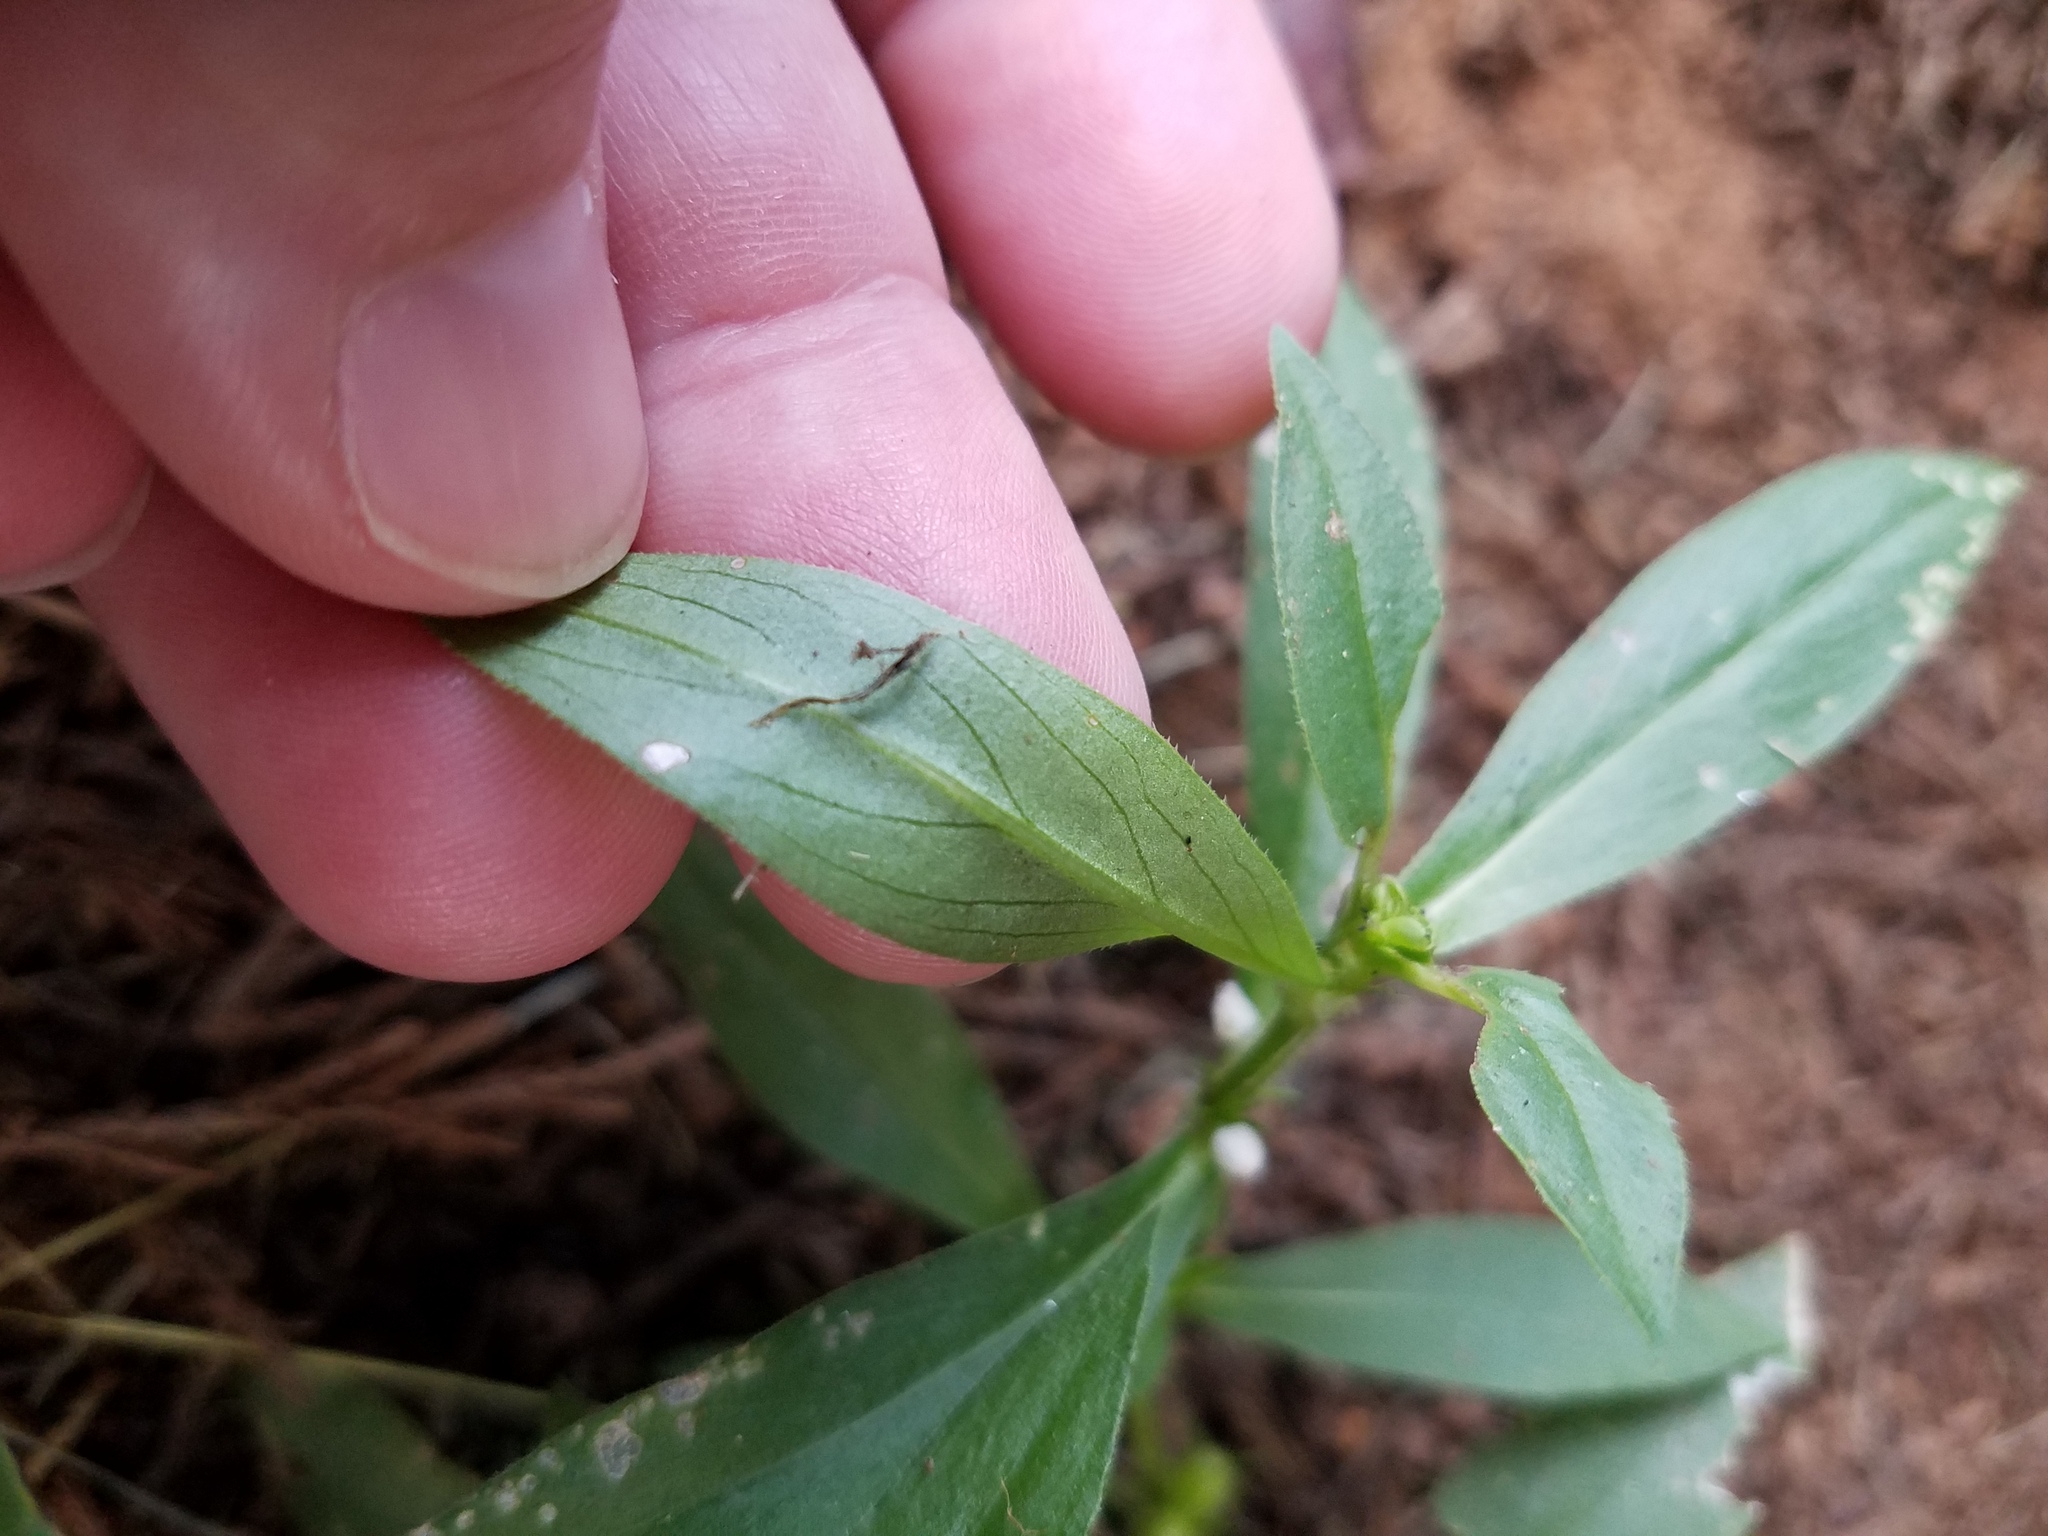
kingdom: Plantae
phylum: Tracheophyta
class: Magnoliopsida
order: Gentianales
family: Rubiaceae
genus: Diodia
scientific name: Diodia virginiana
